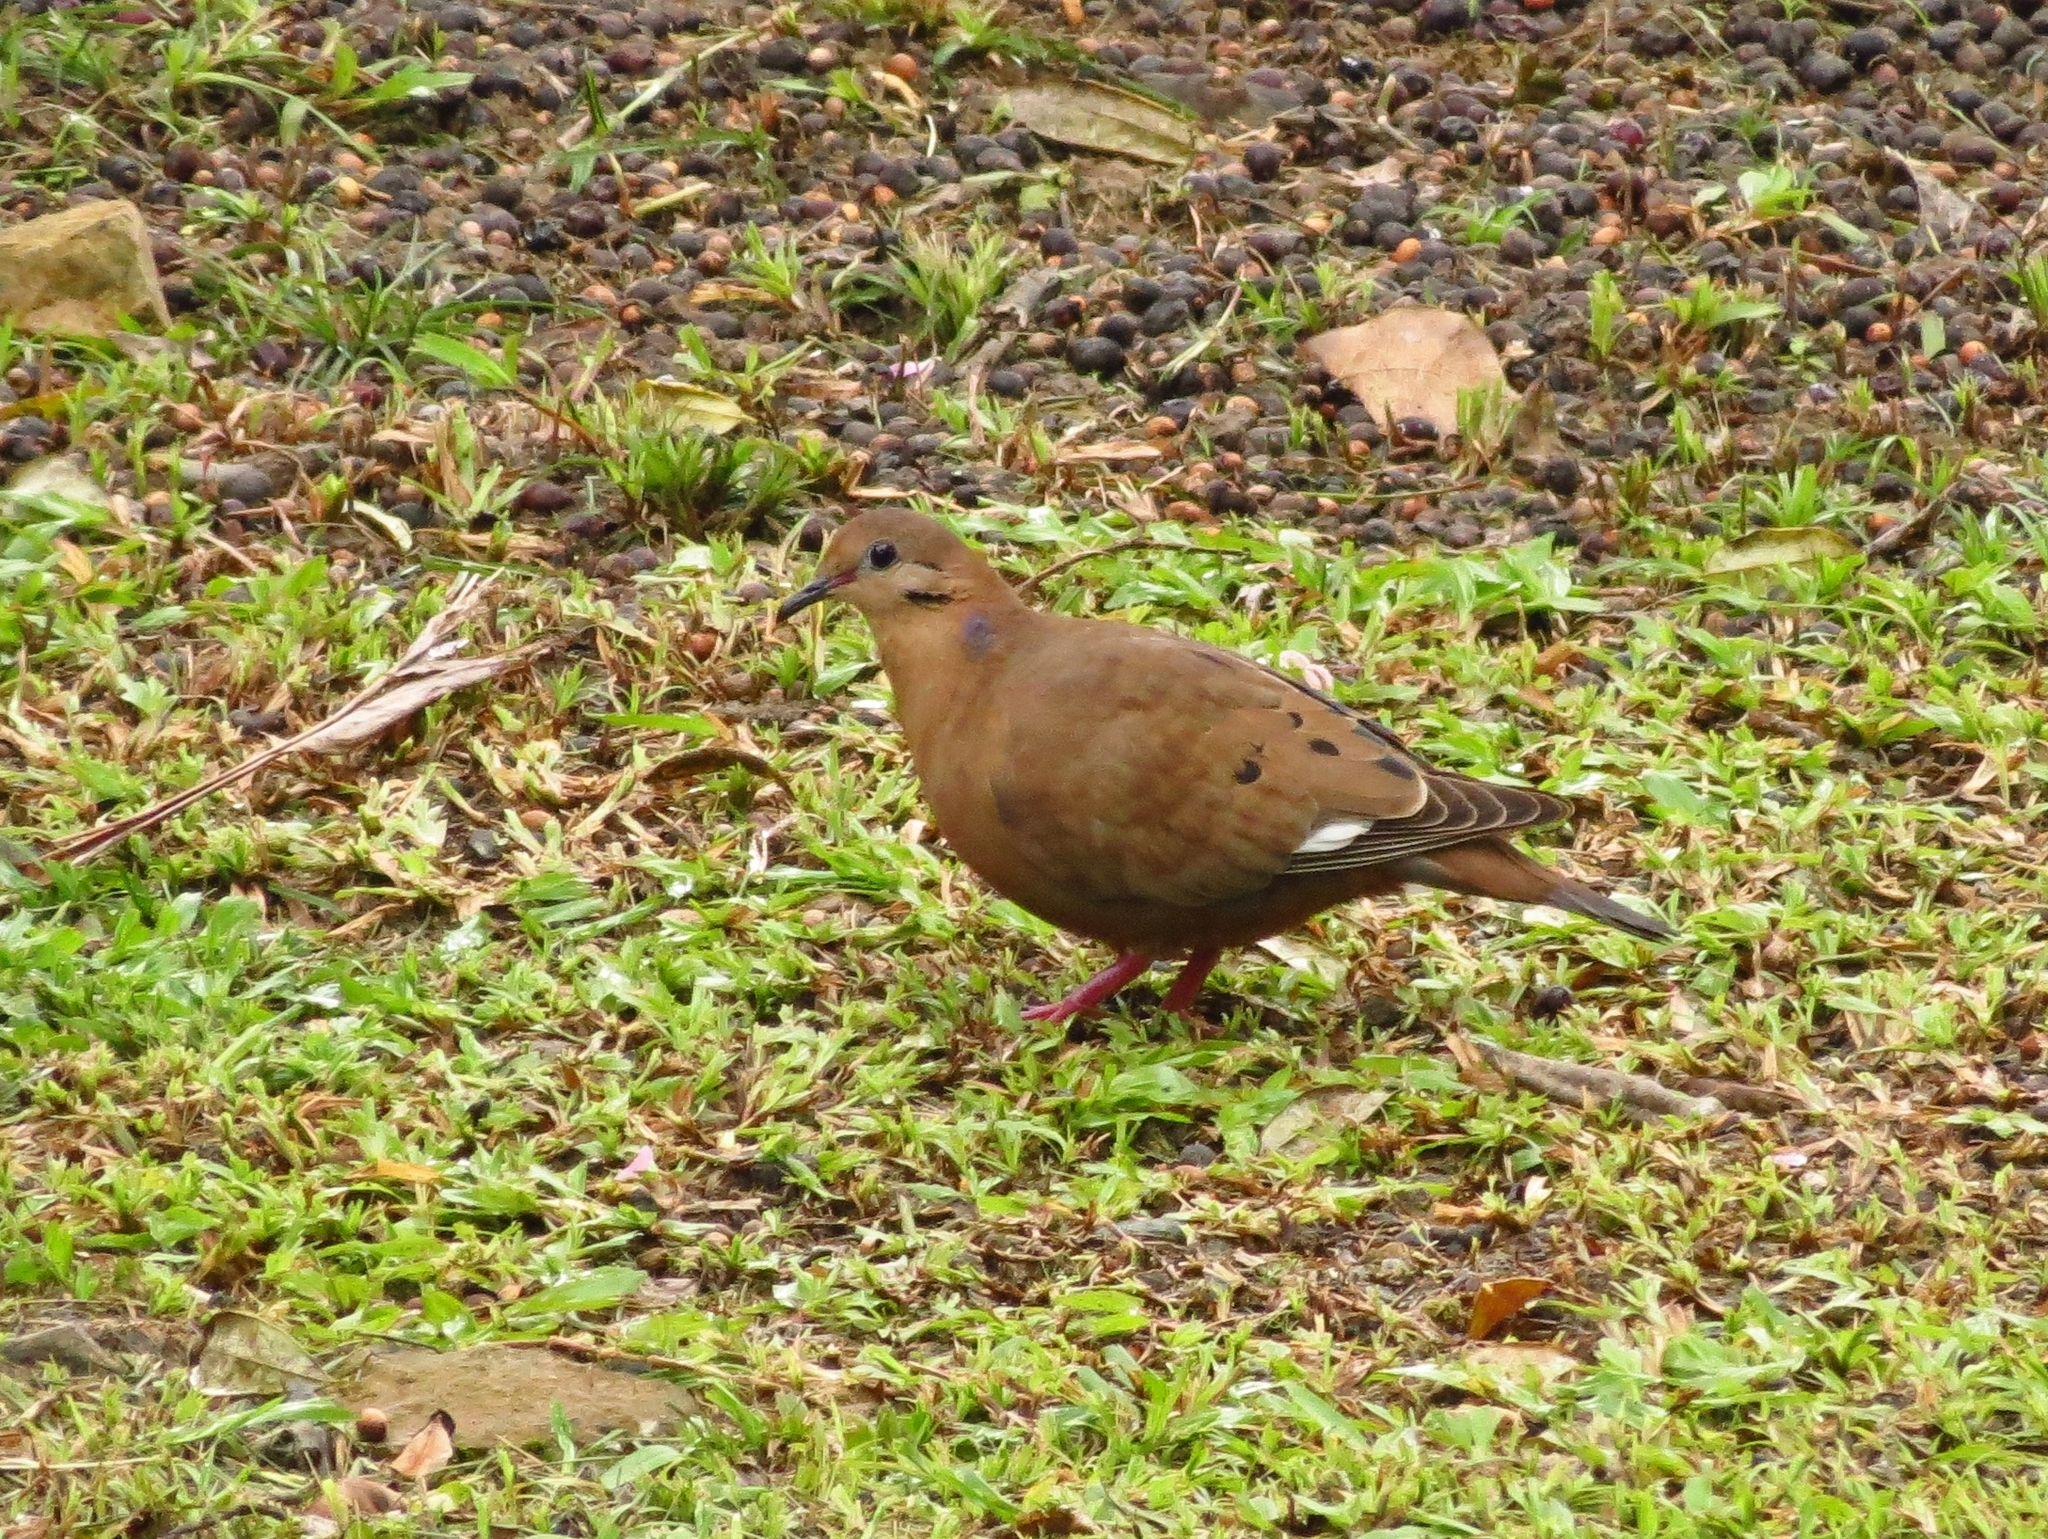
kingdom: Animalia
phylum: Chordata
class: Aves
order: Columbiformes
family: Columbidae
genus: Zenaida
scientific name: Zenaida aurita
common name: Zenaida dove
